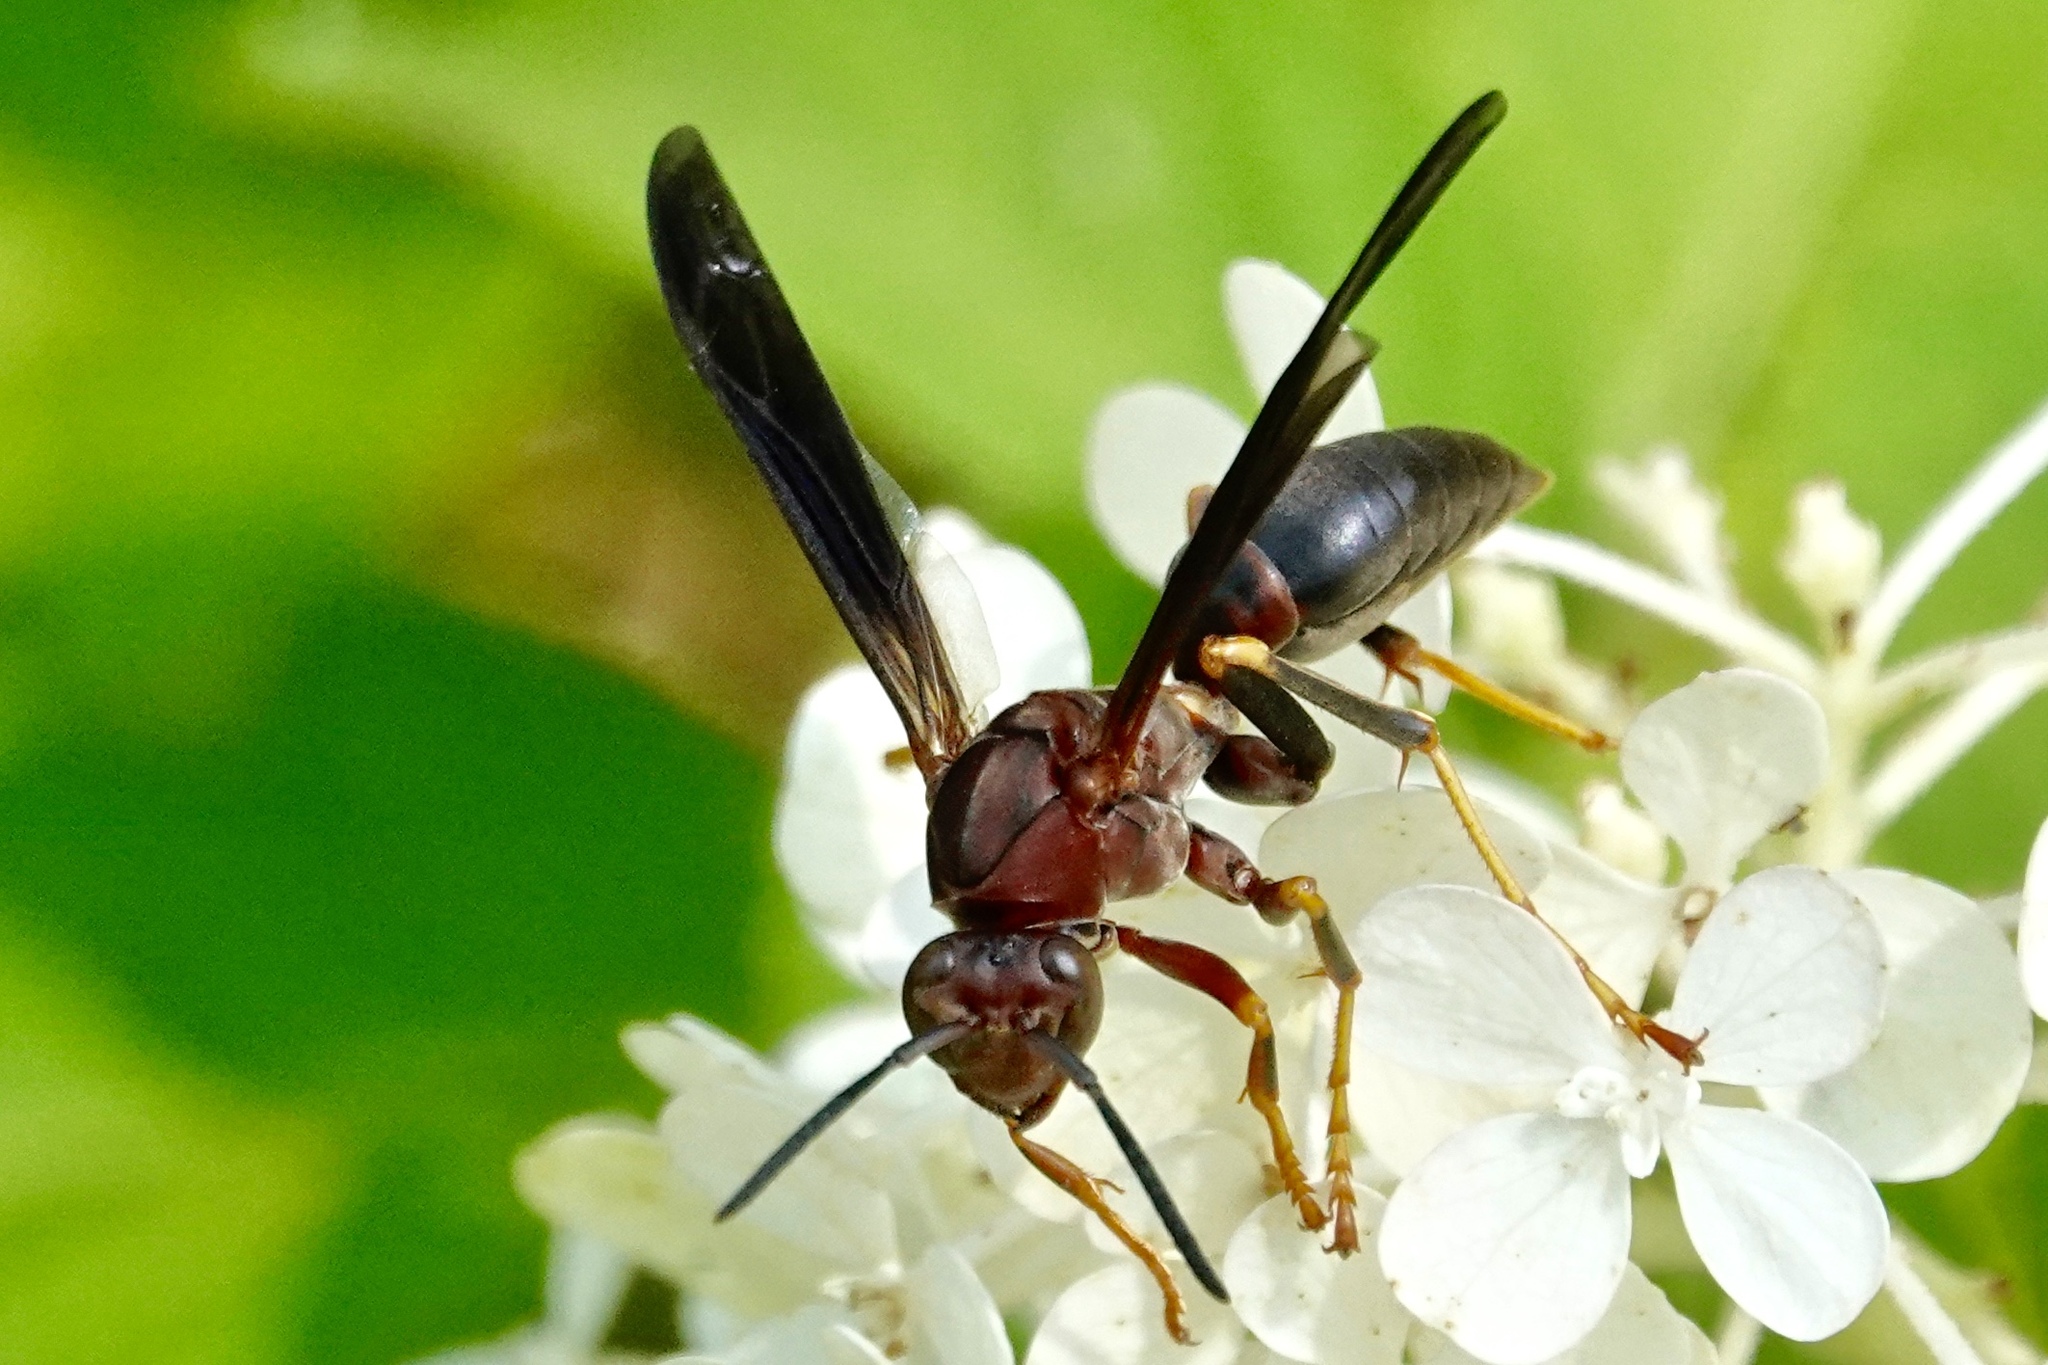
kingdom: Animalia
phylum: Arthropoda
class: Insecta
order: Hymenoptera
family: Eumenidae
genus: Polistes
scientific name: Polistes metricus
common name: Metric paper wasp
